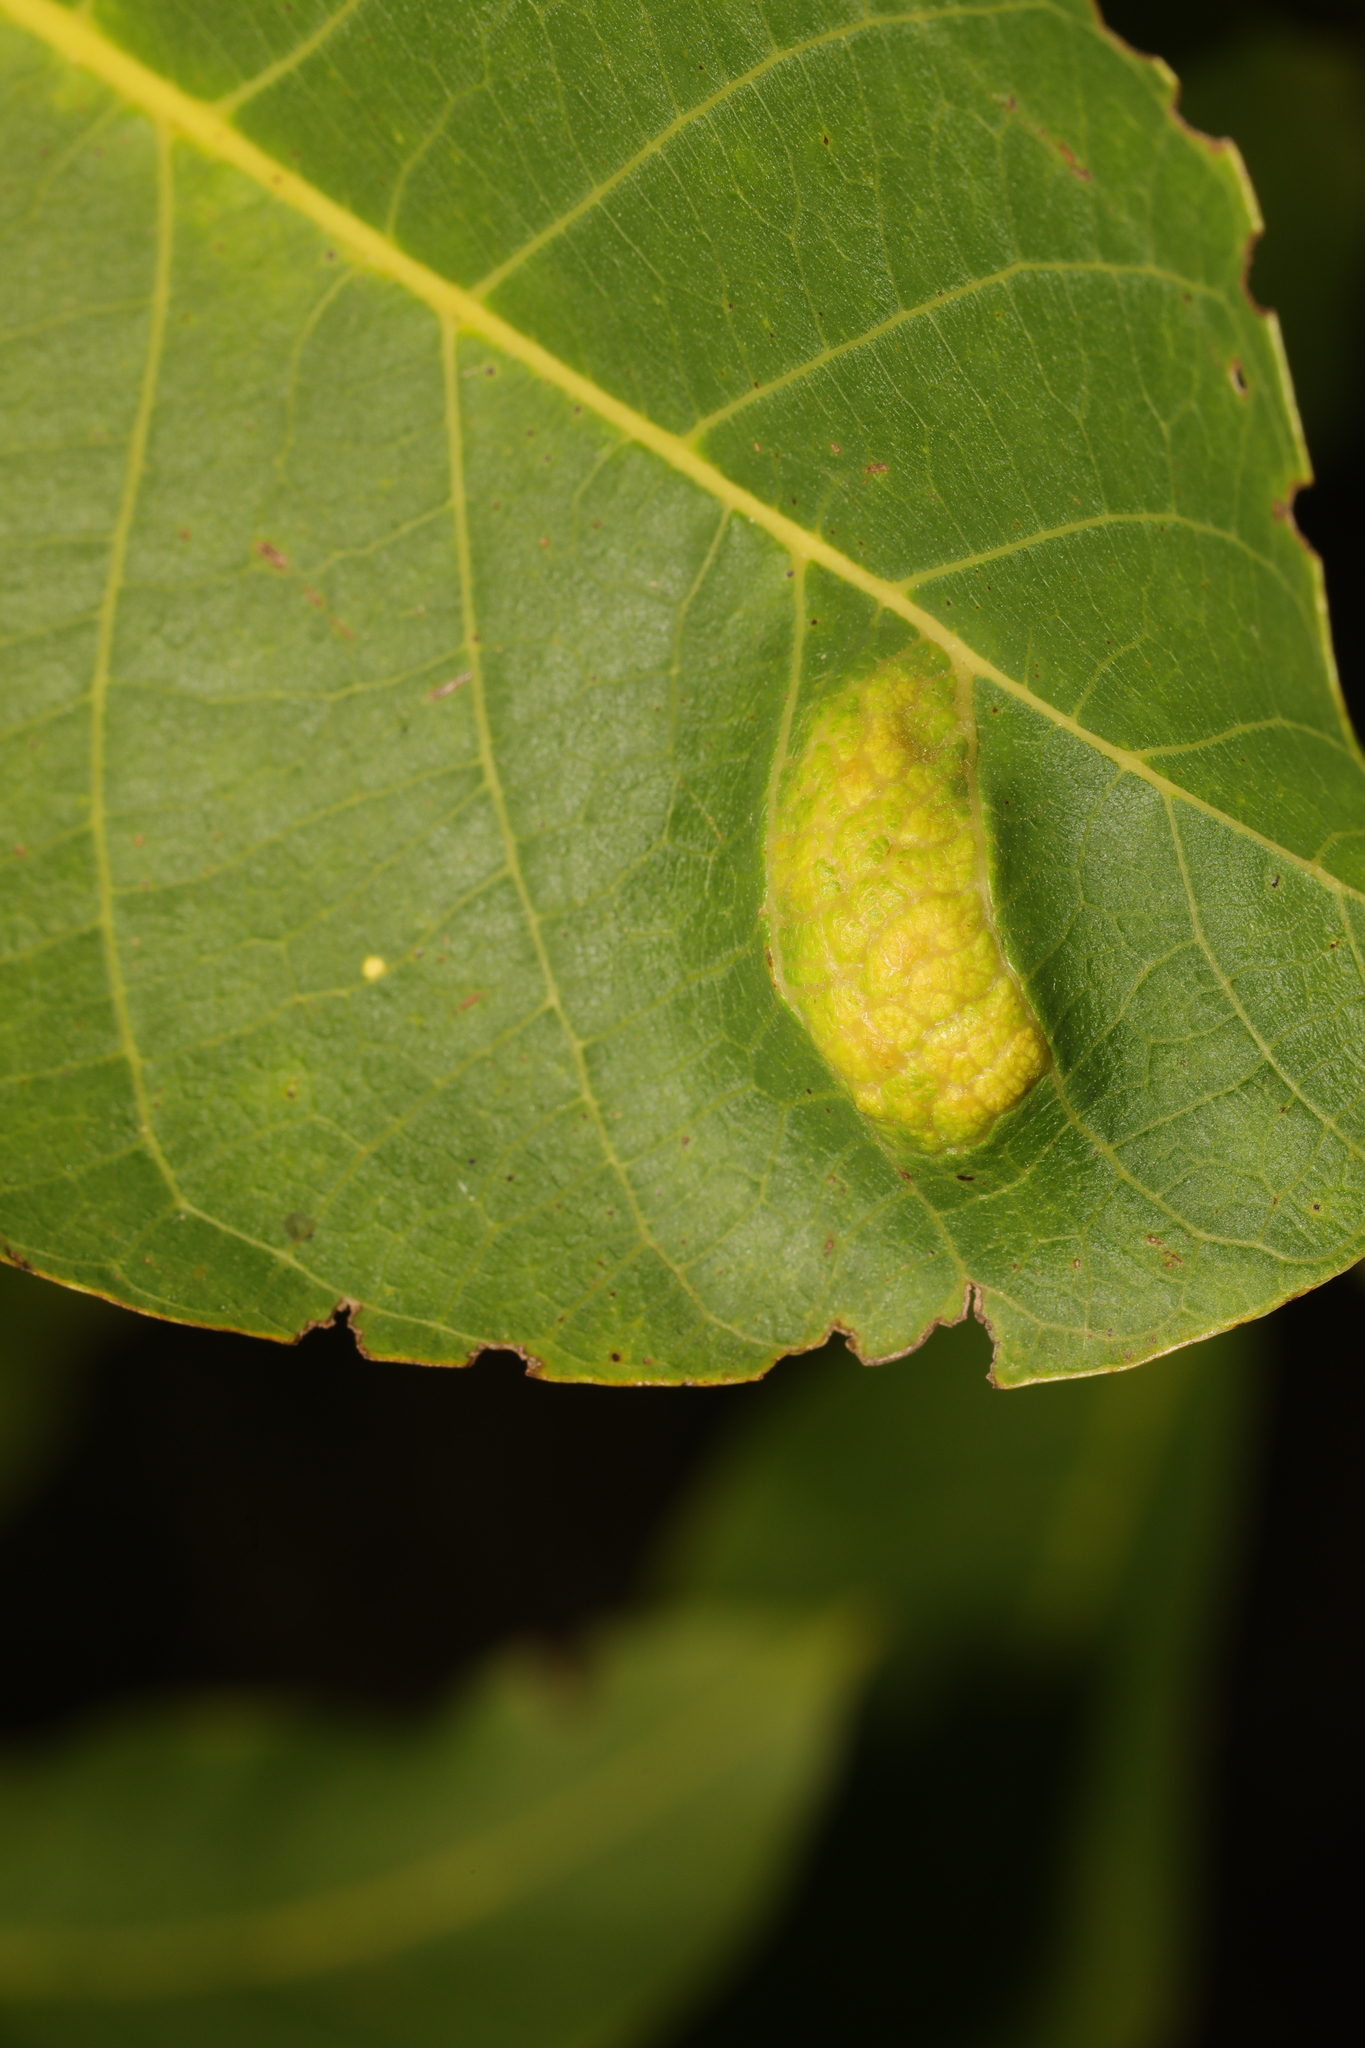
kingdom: Animalia
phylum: Arthropoda
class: Arachnida
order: Trombidiformes
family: Eriophyidae
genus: Aceria
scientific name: Aceria erinea
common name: Persian walnut erineum mite
